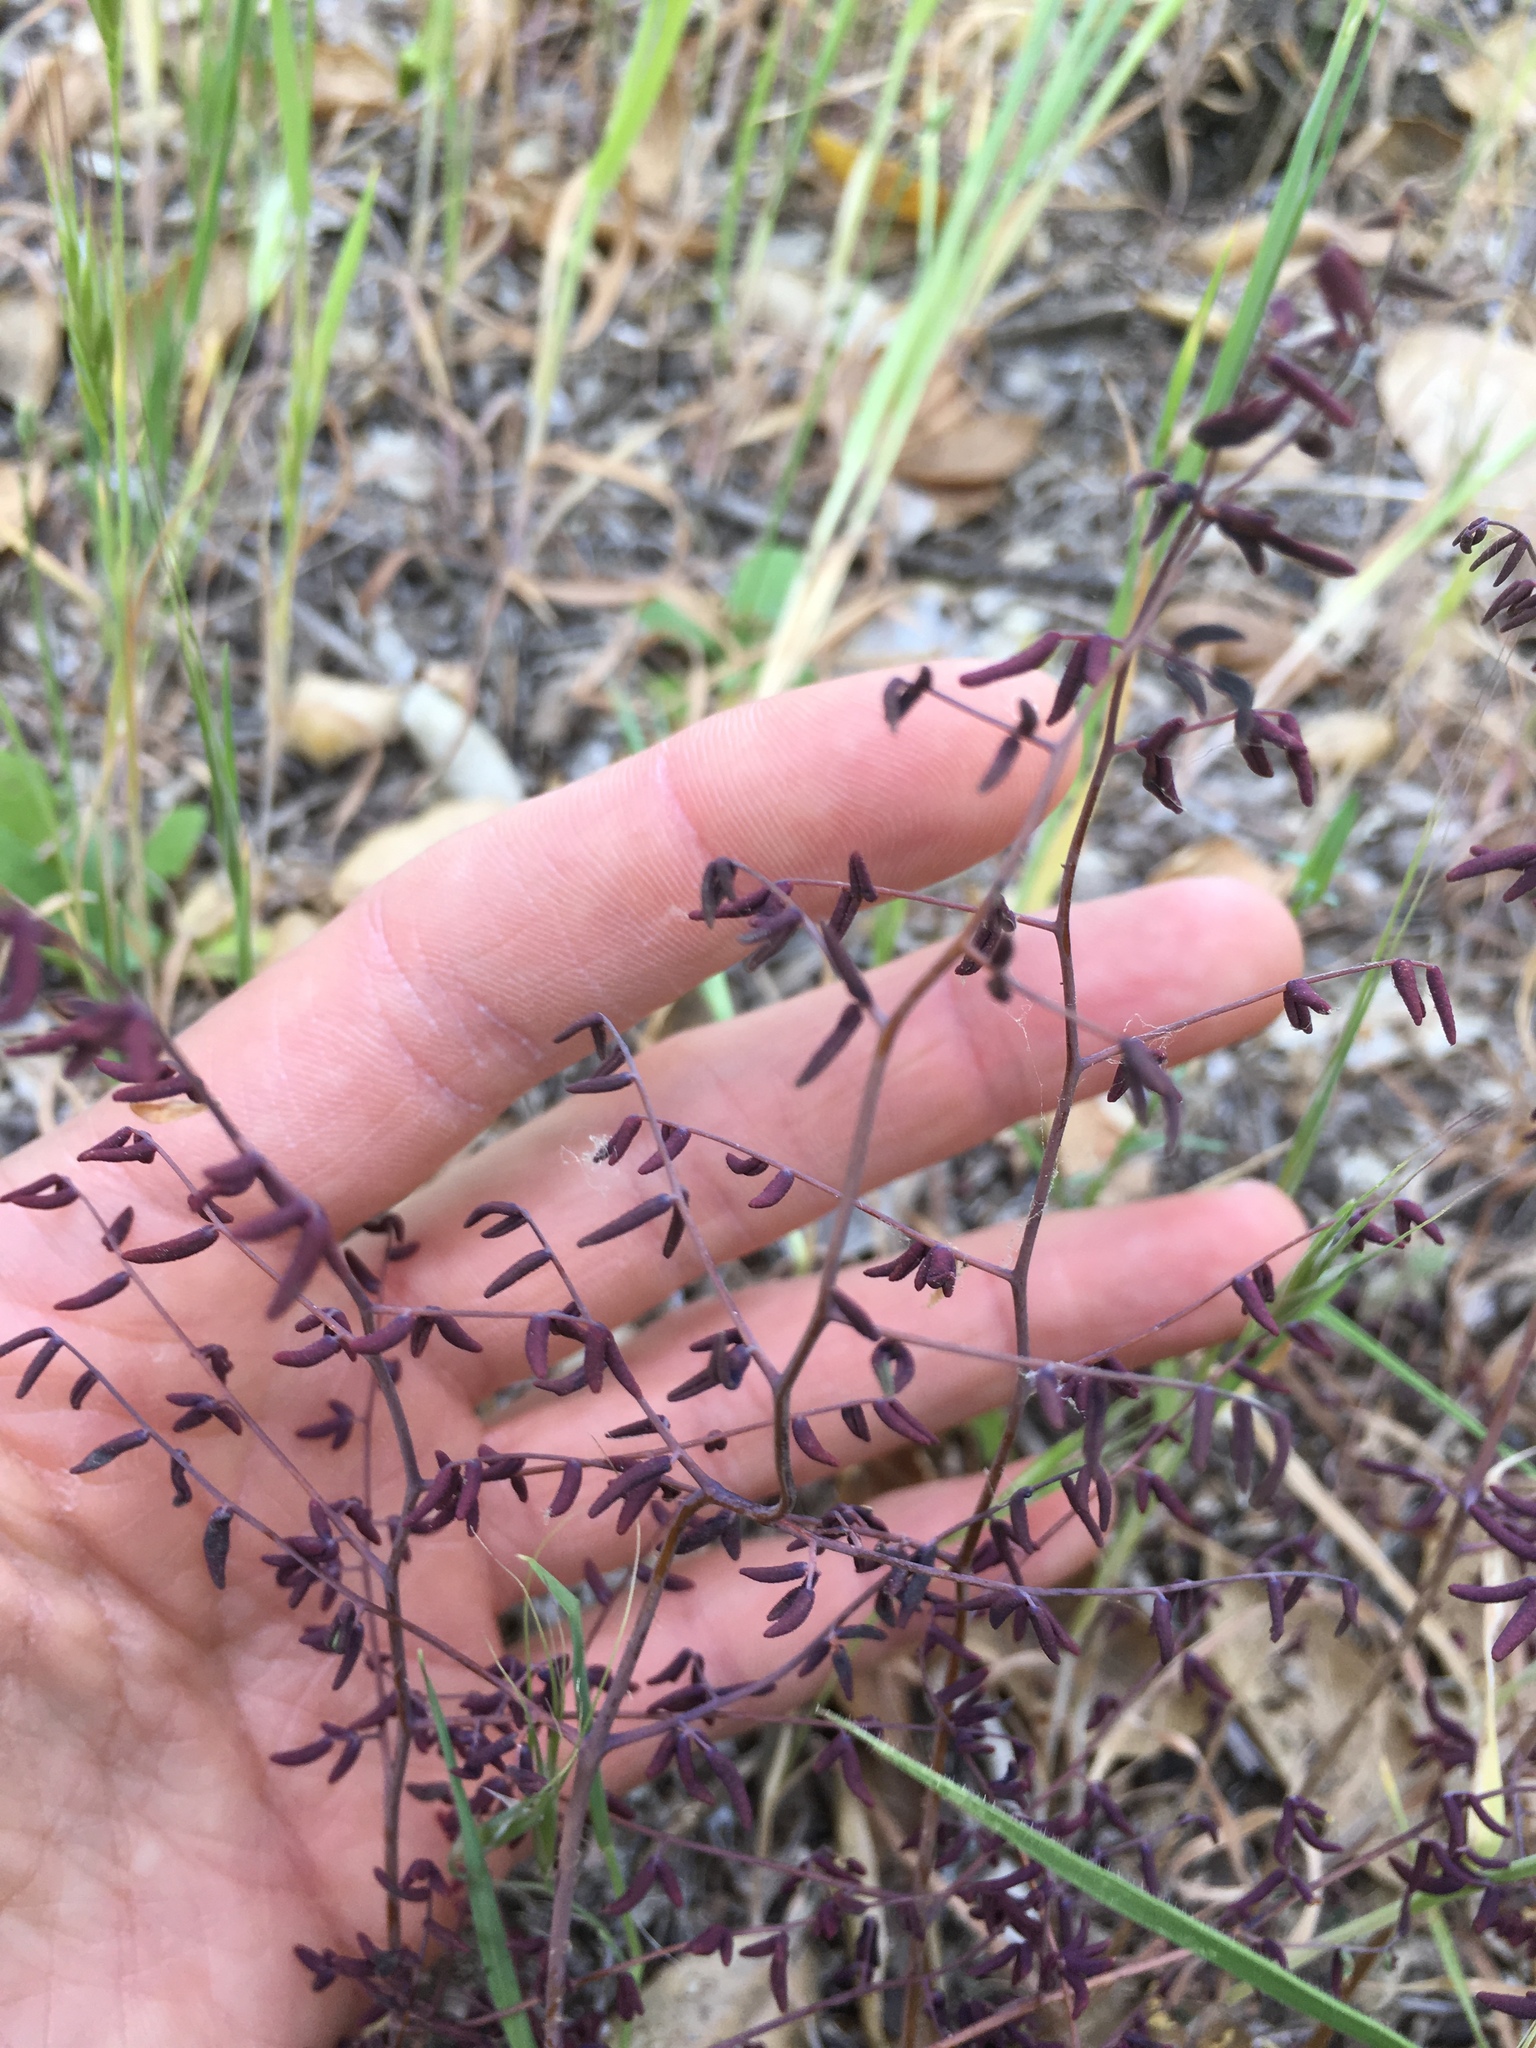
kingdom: Plantae
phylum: Tracheophyta
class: Polypodiopsida
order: Polypodiales
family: Pteridaceae
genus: Pellaea
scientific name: Pellaea andromedifolia
